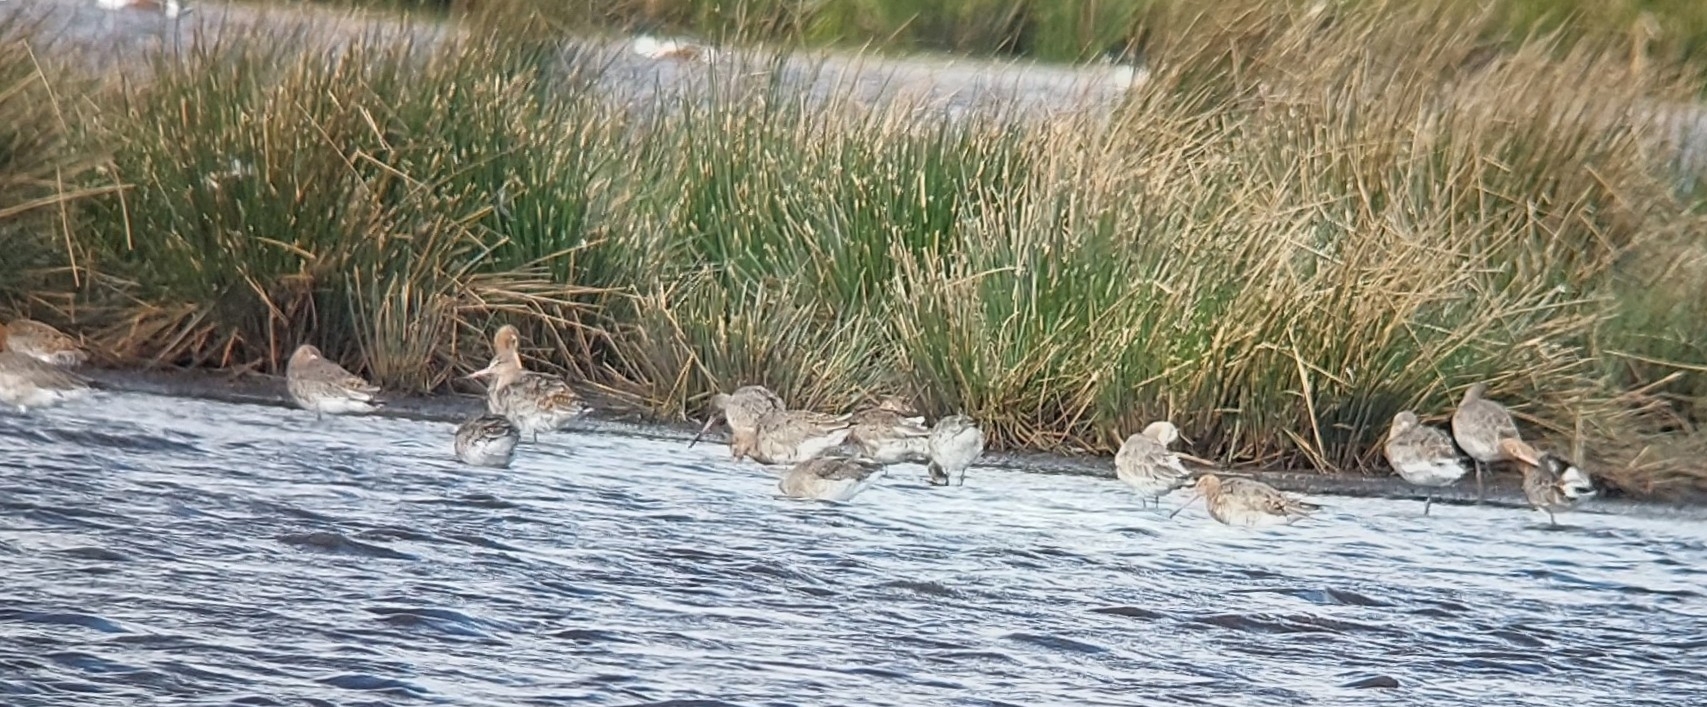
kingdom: Animalia
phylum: Chordata
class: Aves
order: Charadriiformes
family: Scolopacidae
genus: Limosa
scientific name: Limosa limosa
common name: Black-tailed godwit
